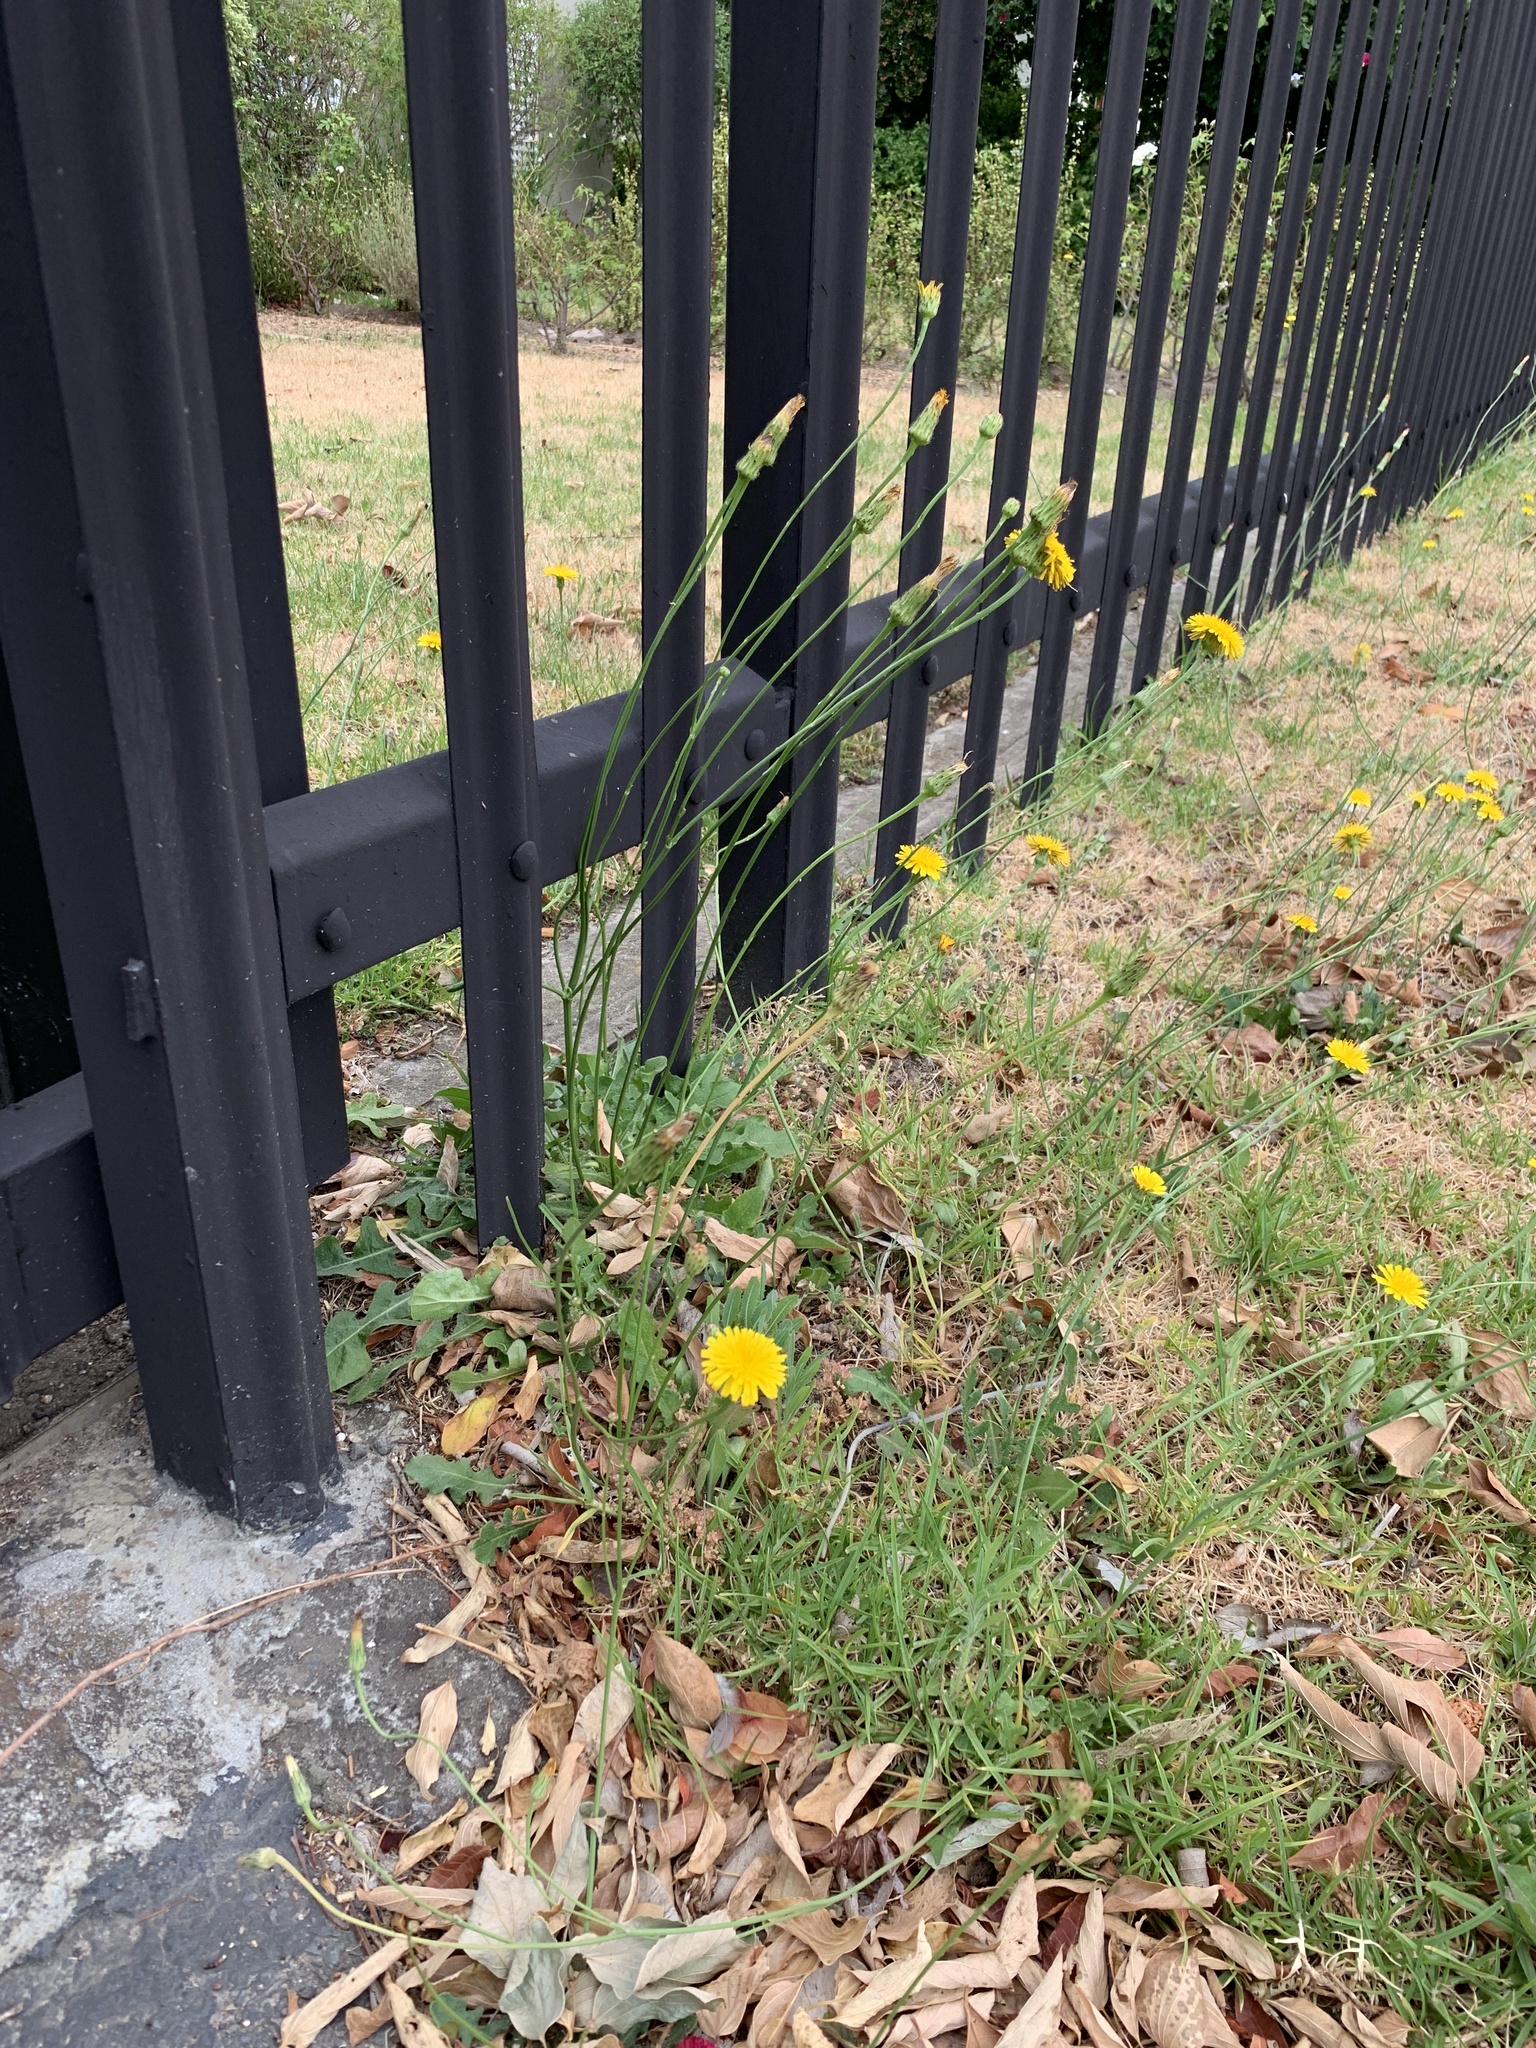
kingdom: Plantae
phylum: Tracheophyta
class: Magnoliopsida
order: Asterales
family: Asteraceae
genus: Hypochaeris
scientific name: Hypochaeris radicata
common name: Flatweed
